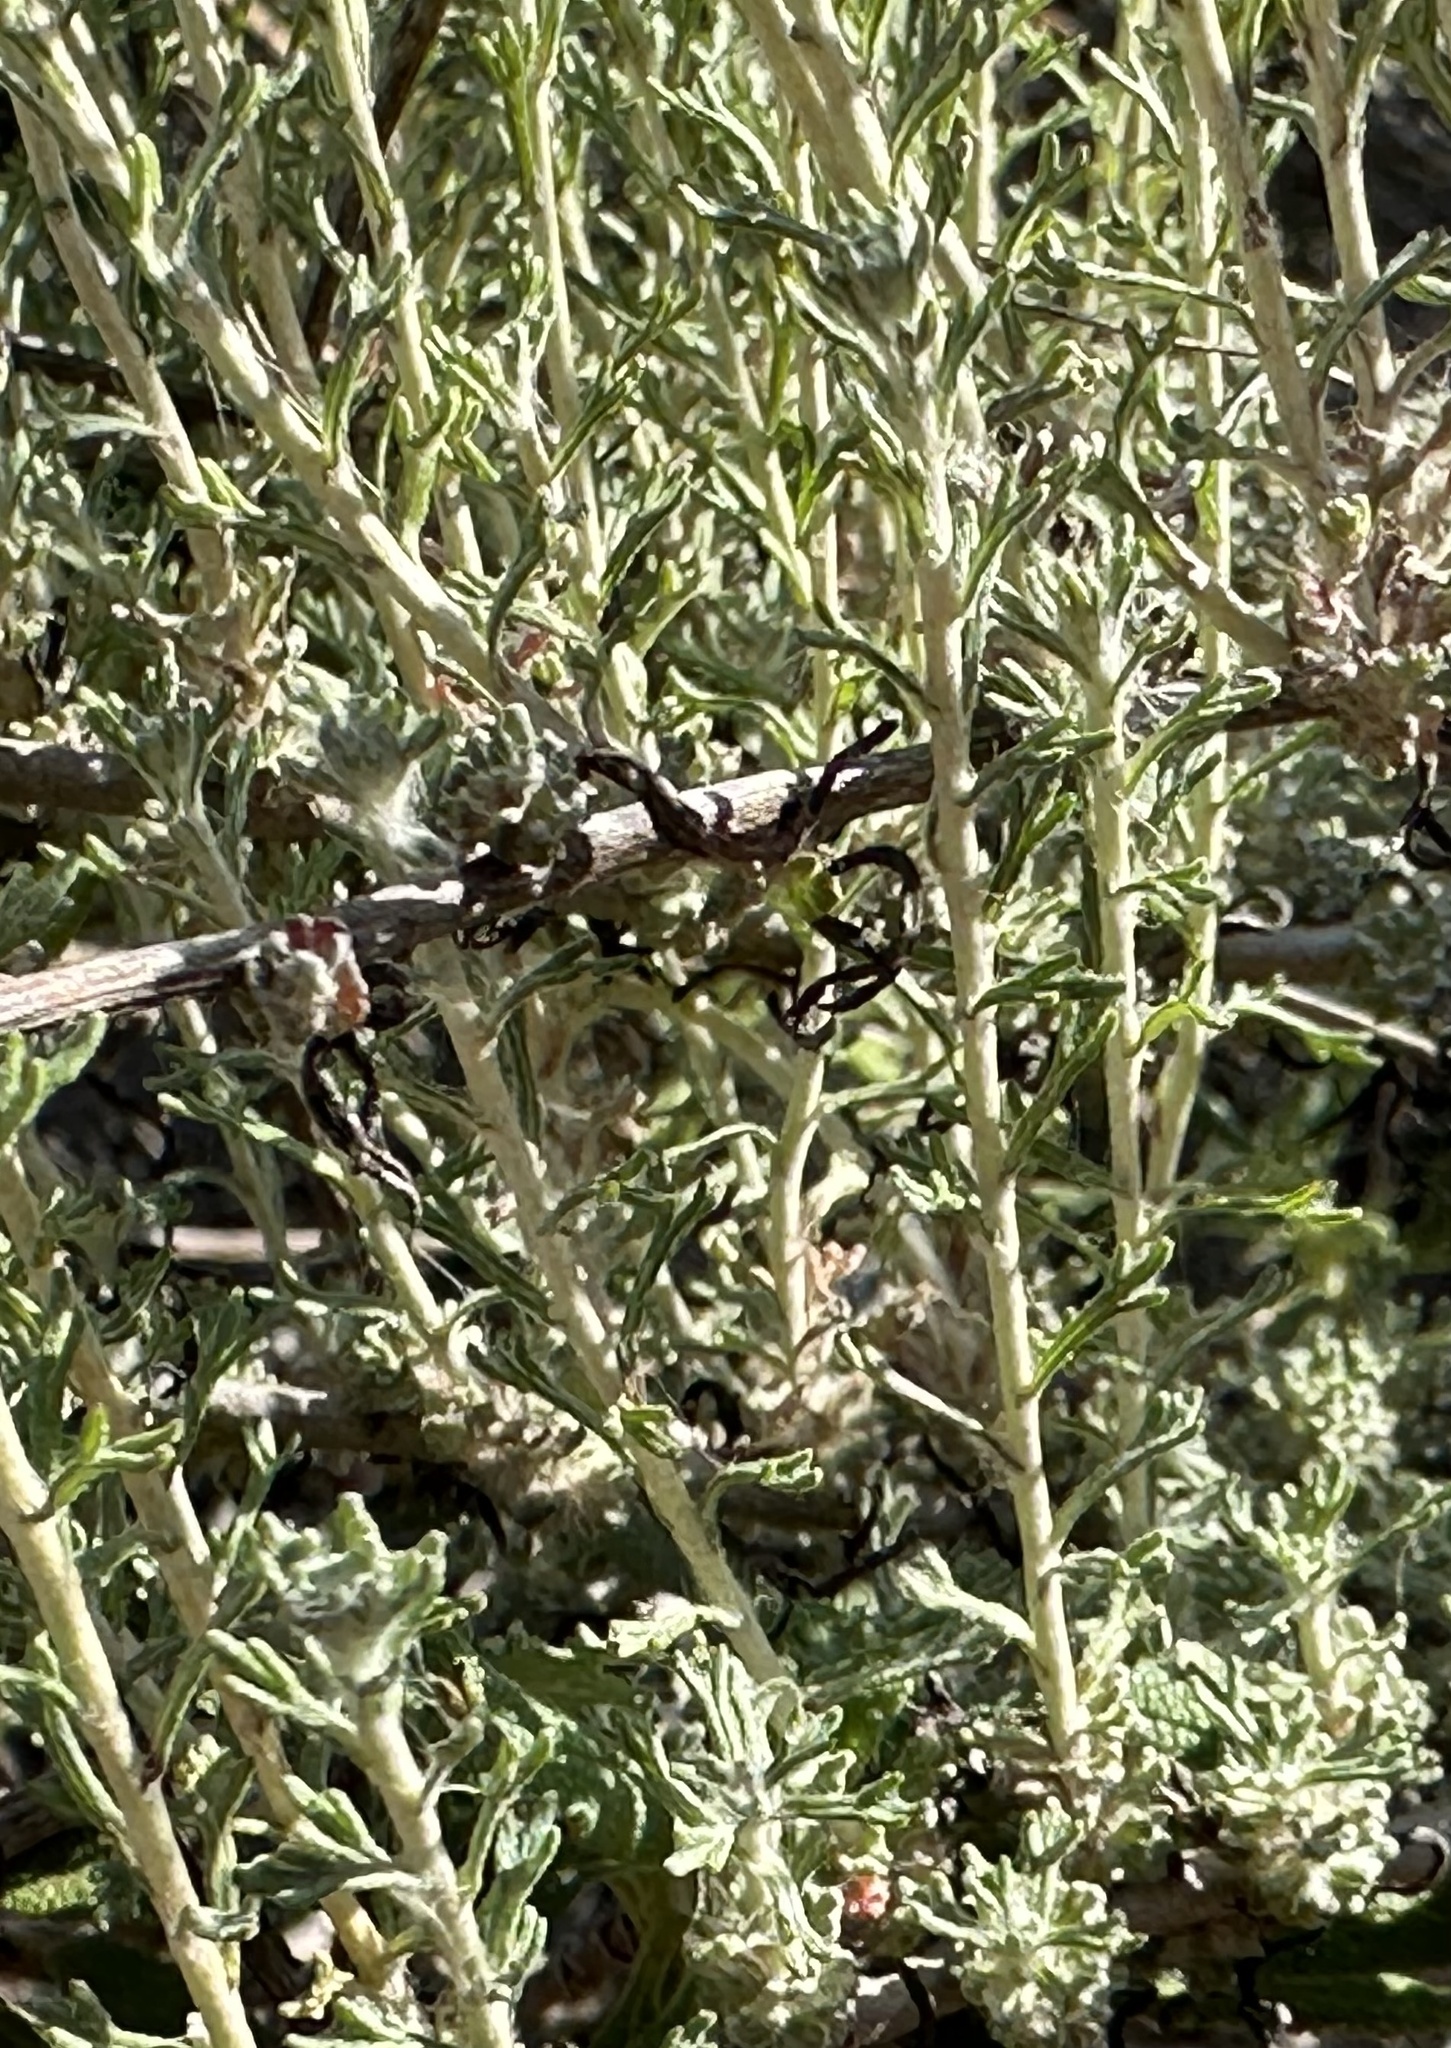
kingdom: Plantae
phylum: Tracheophyta
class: Magnoliopsida
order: Asterales
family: Asteraceae
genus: Eriophyllum
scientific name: Eriophyllum confertiflorum
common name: Golden-yarrow
